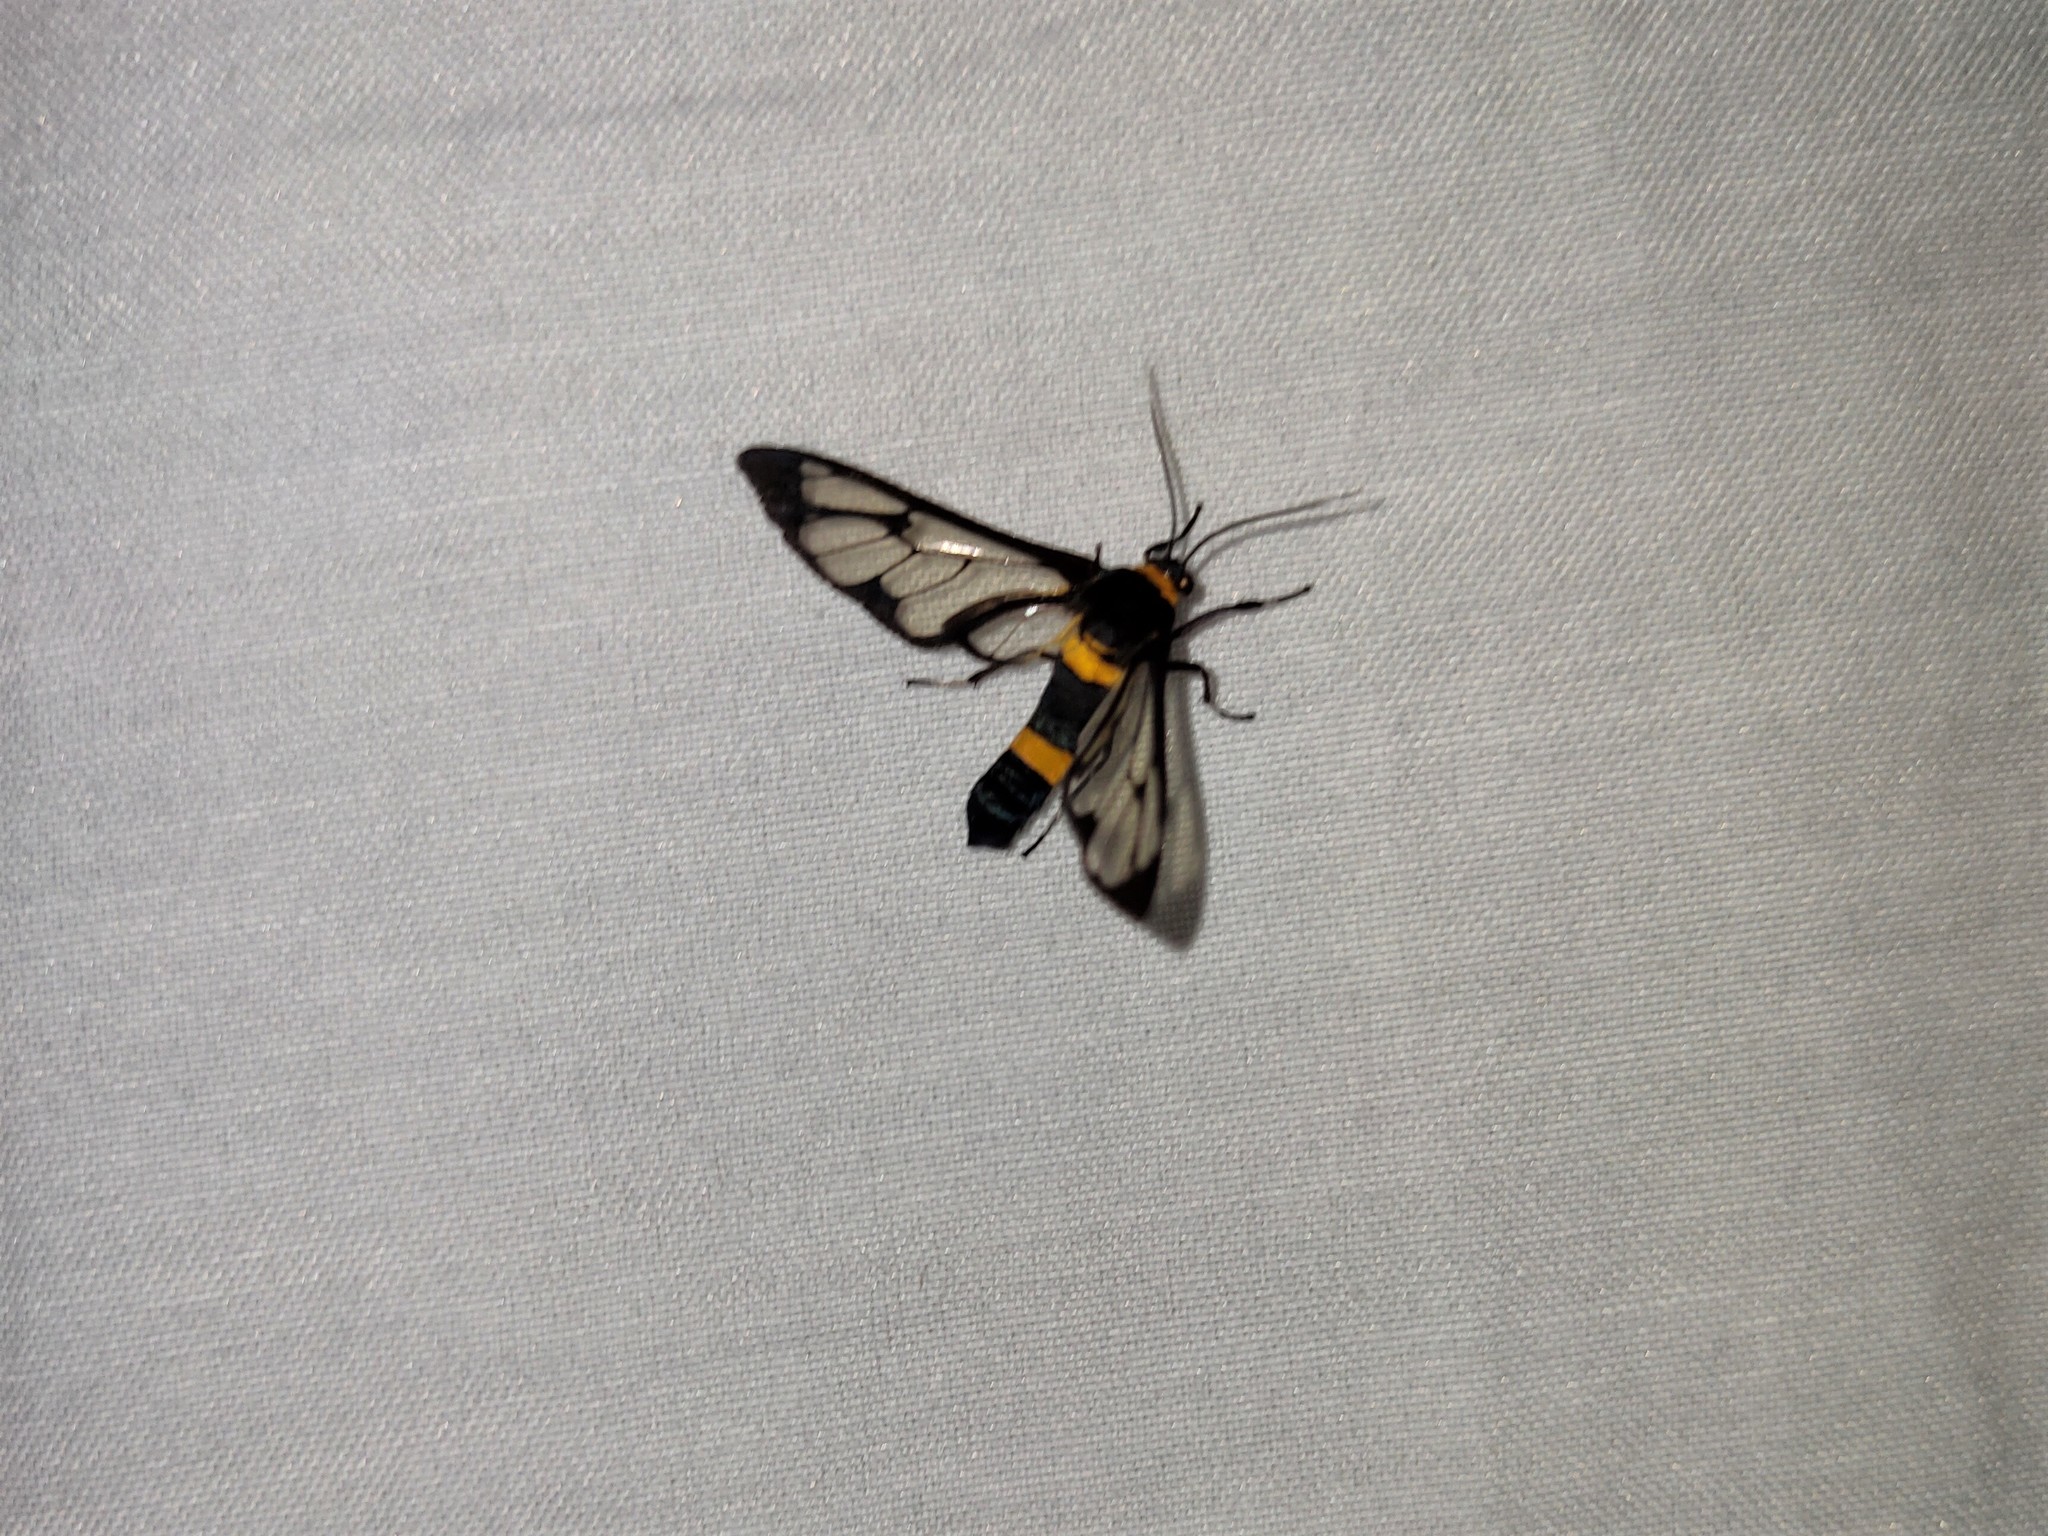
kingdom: Animalia
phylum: Arthropoda
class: Insecta
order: Lepidoptera
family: Erebidae
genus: Syntomoides
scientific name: Syntomoides imaon
